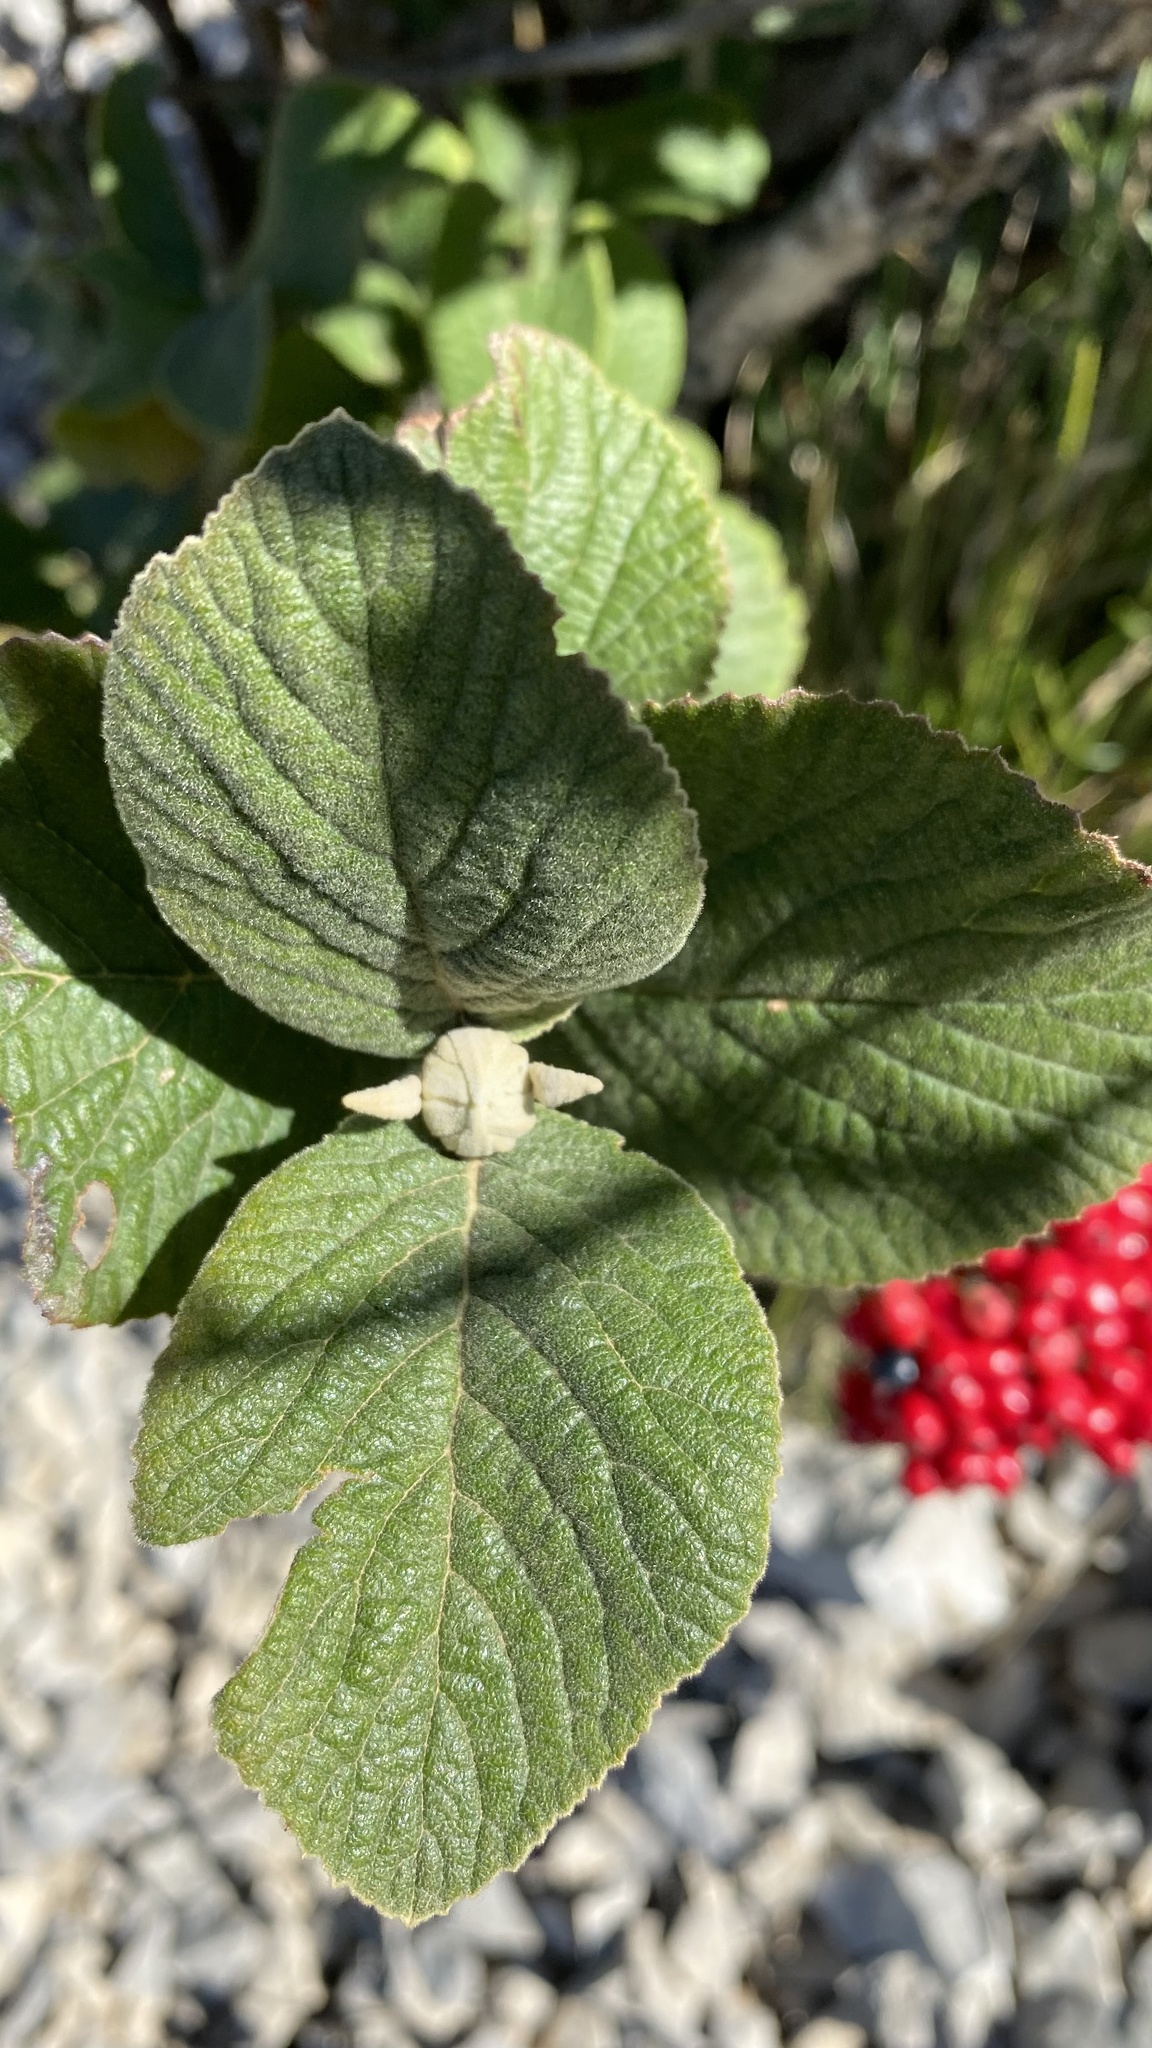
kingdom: Plantae
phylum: Tracheophyta
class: Magnoliopsida
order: Dipsacales
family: Viburnaceae
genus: Viburnum
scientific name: Viburnum lantana
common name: Wayfaring tree
